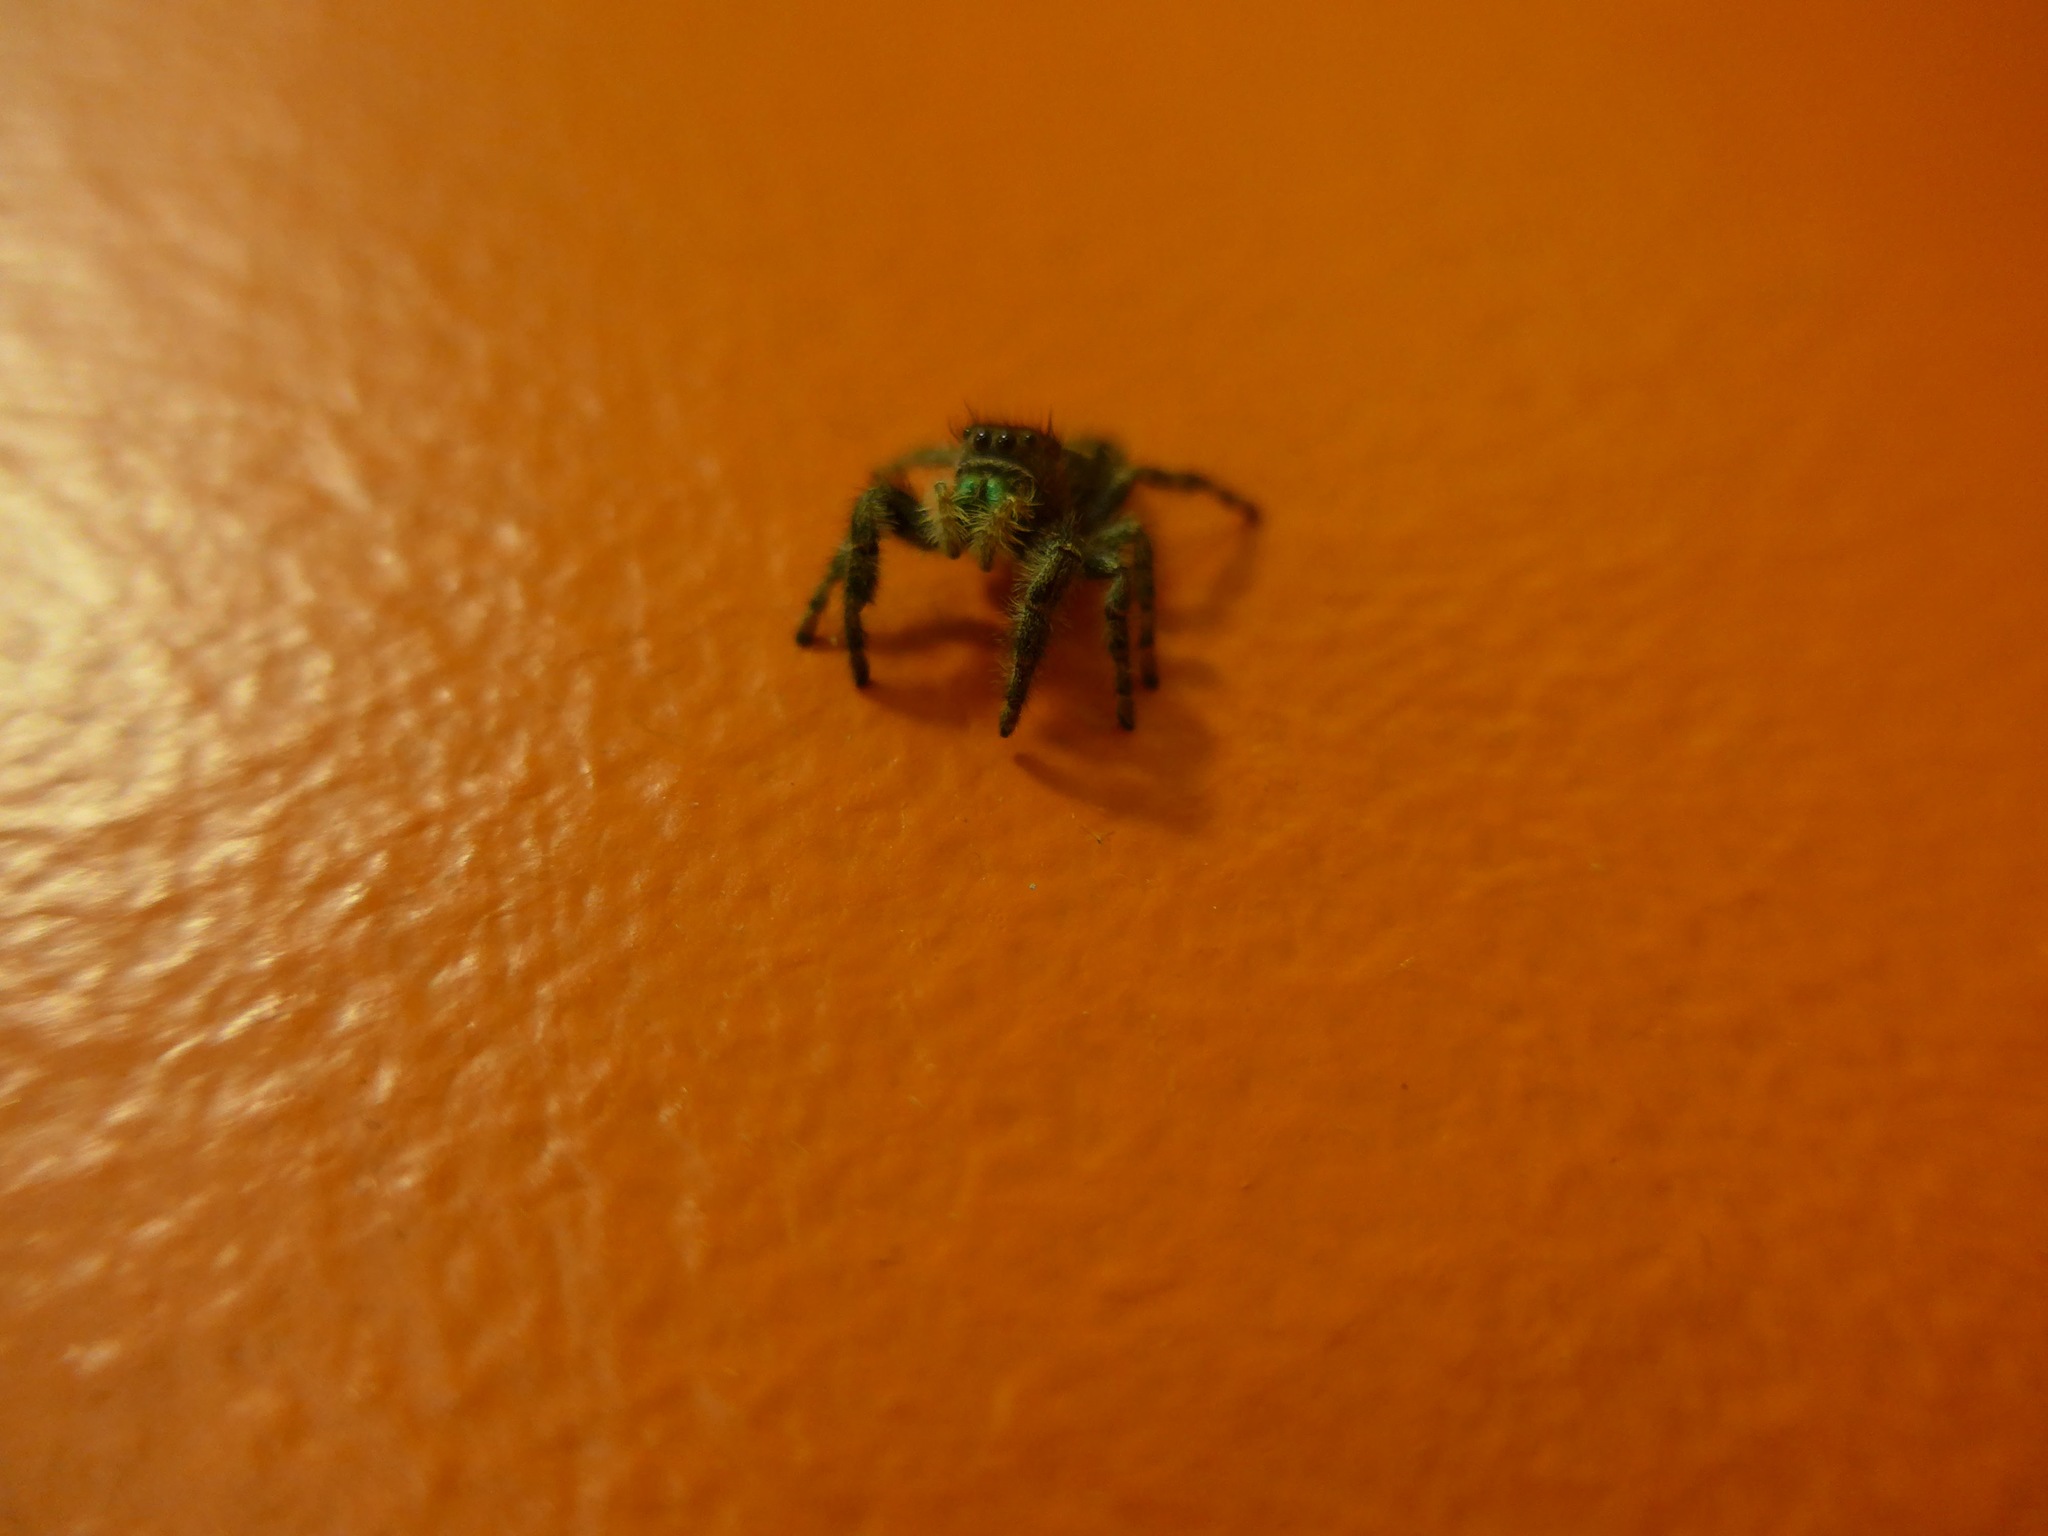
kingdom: Animalia
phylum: Arthropoda
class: Arachnida
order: Araneae
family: Salticidae
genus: Phidippus
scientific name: Phidippus audax
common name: Bold jumper
